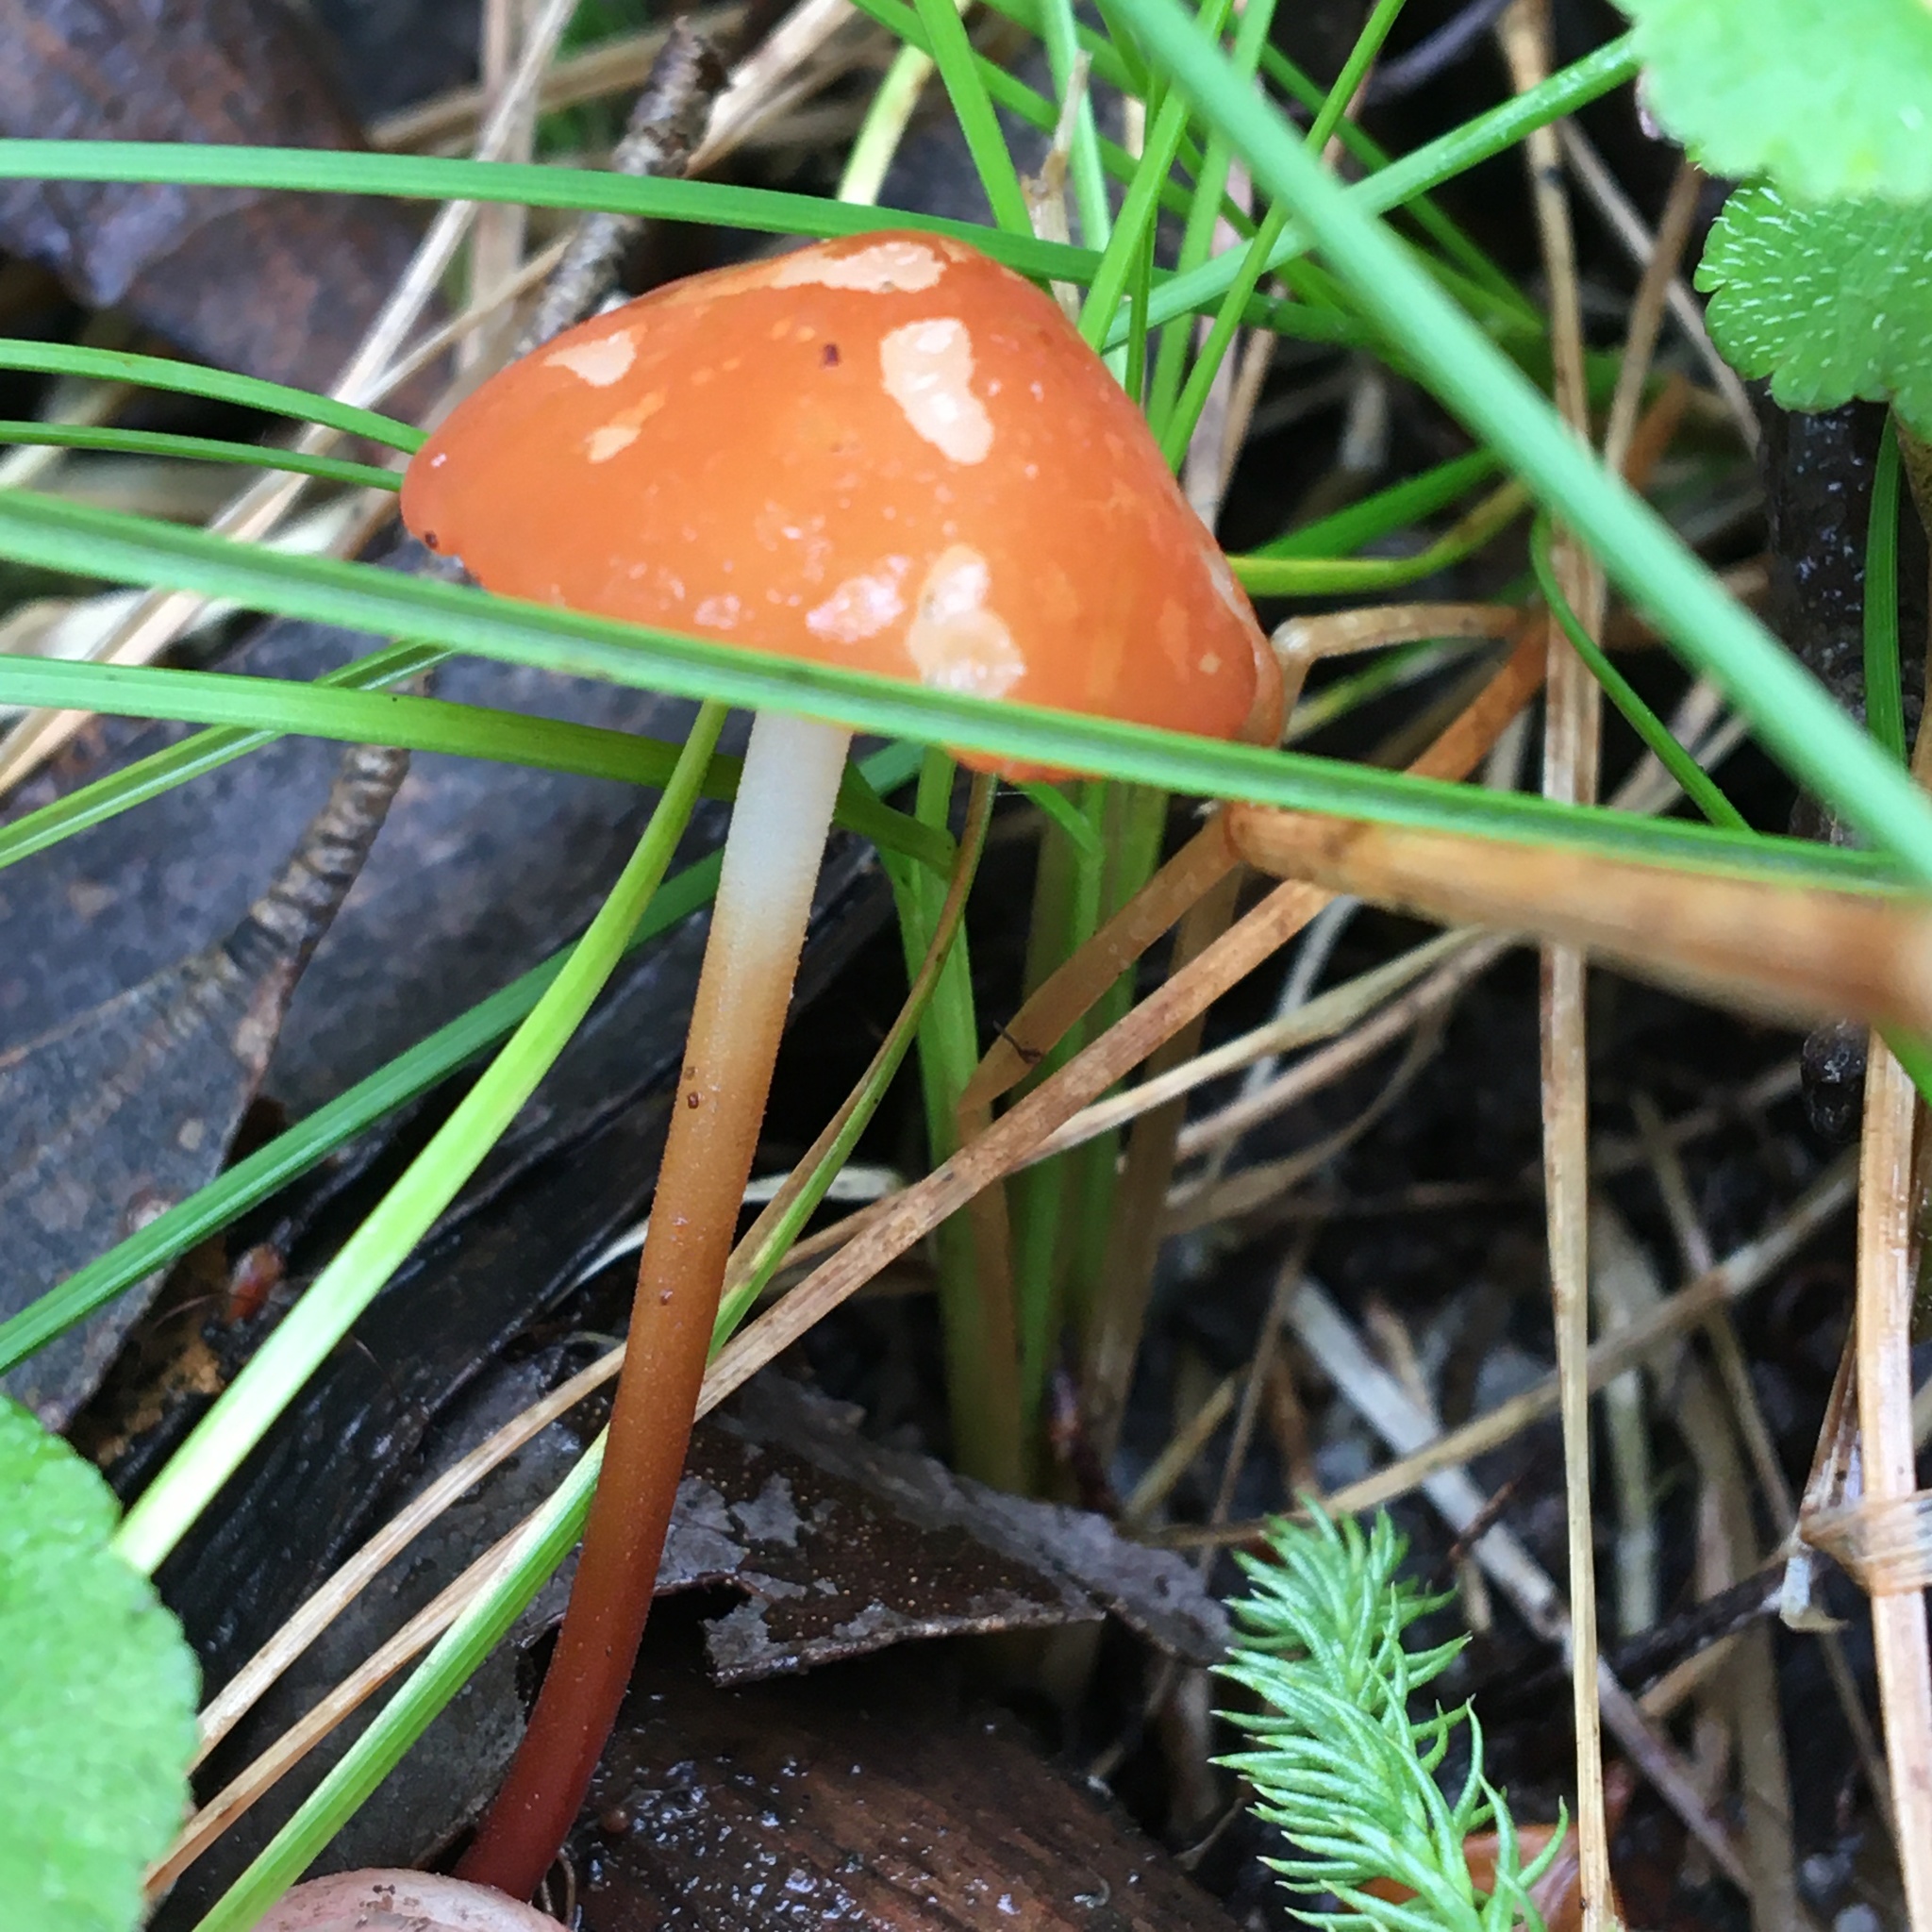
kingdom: Fungi
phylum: Basidiomycota
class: Agaricomycetes
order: Agaricales
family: Marasmiaceae
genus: Marasmius
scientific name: Marasmius elegans
